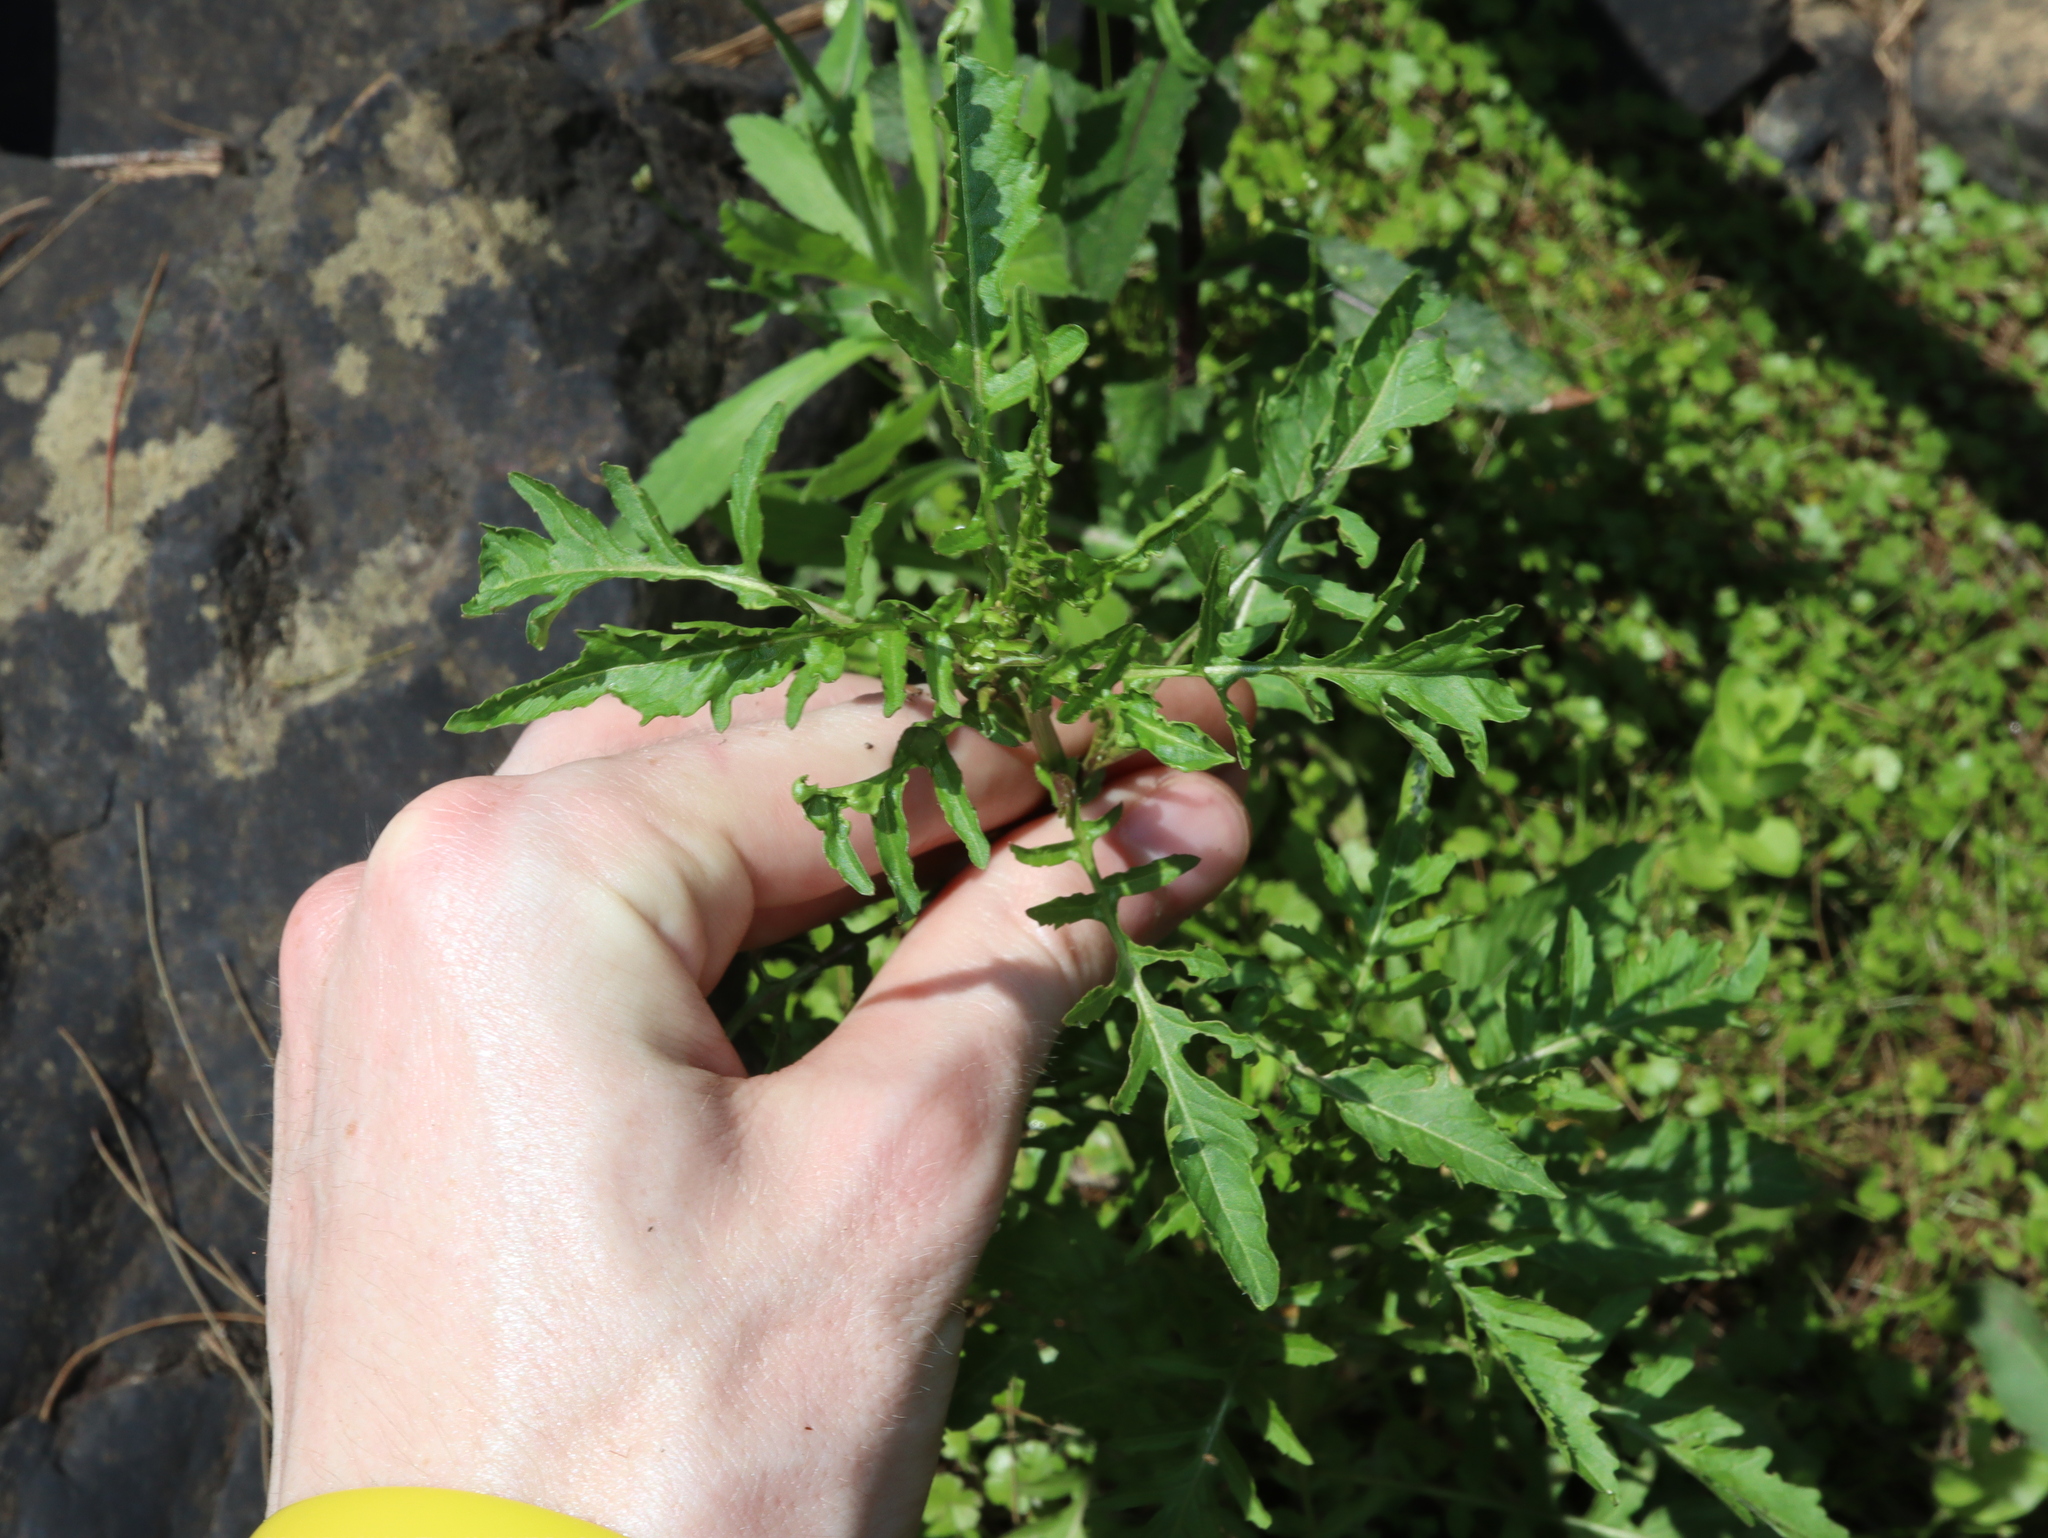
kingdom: Plantae
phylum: Tracheophyta
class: Magnoliopsida
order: Brassicales
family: Brassicaceae
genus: Rorippa
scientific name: Rorippa palustris
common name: Marsh yellow-cress
